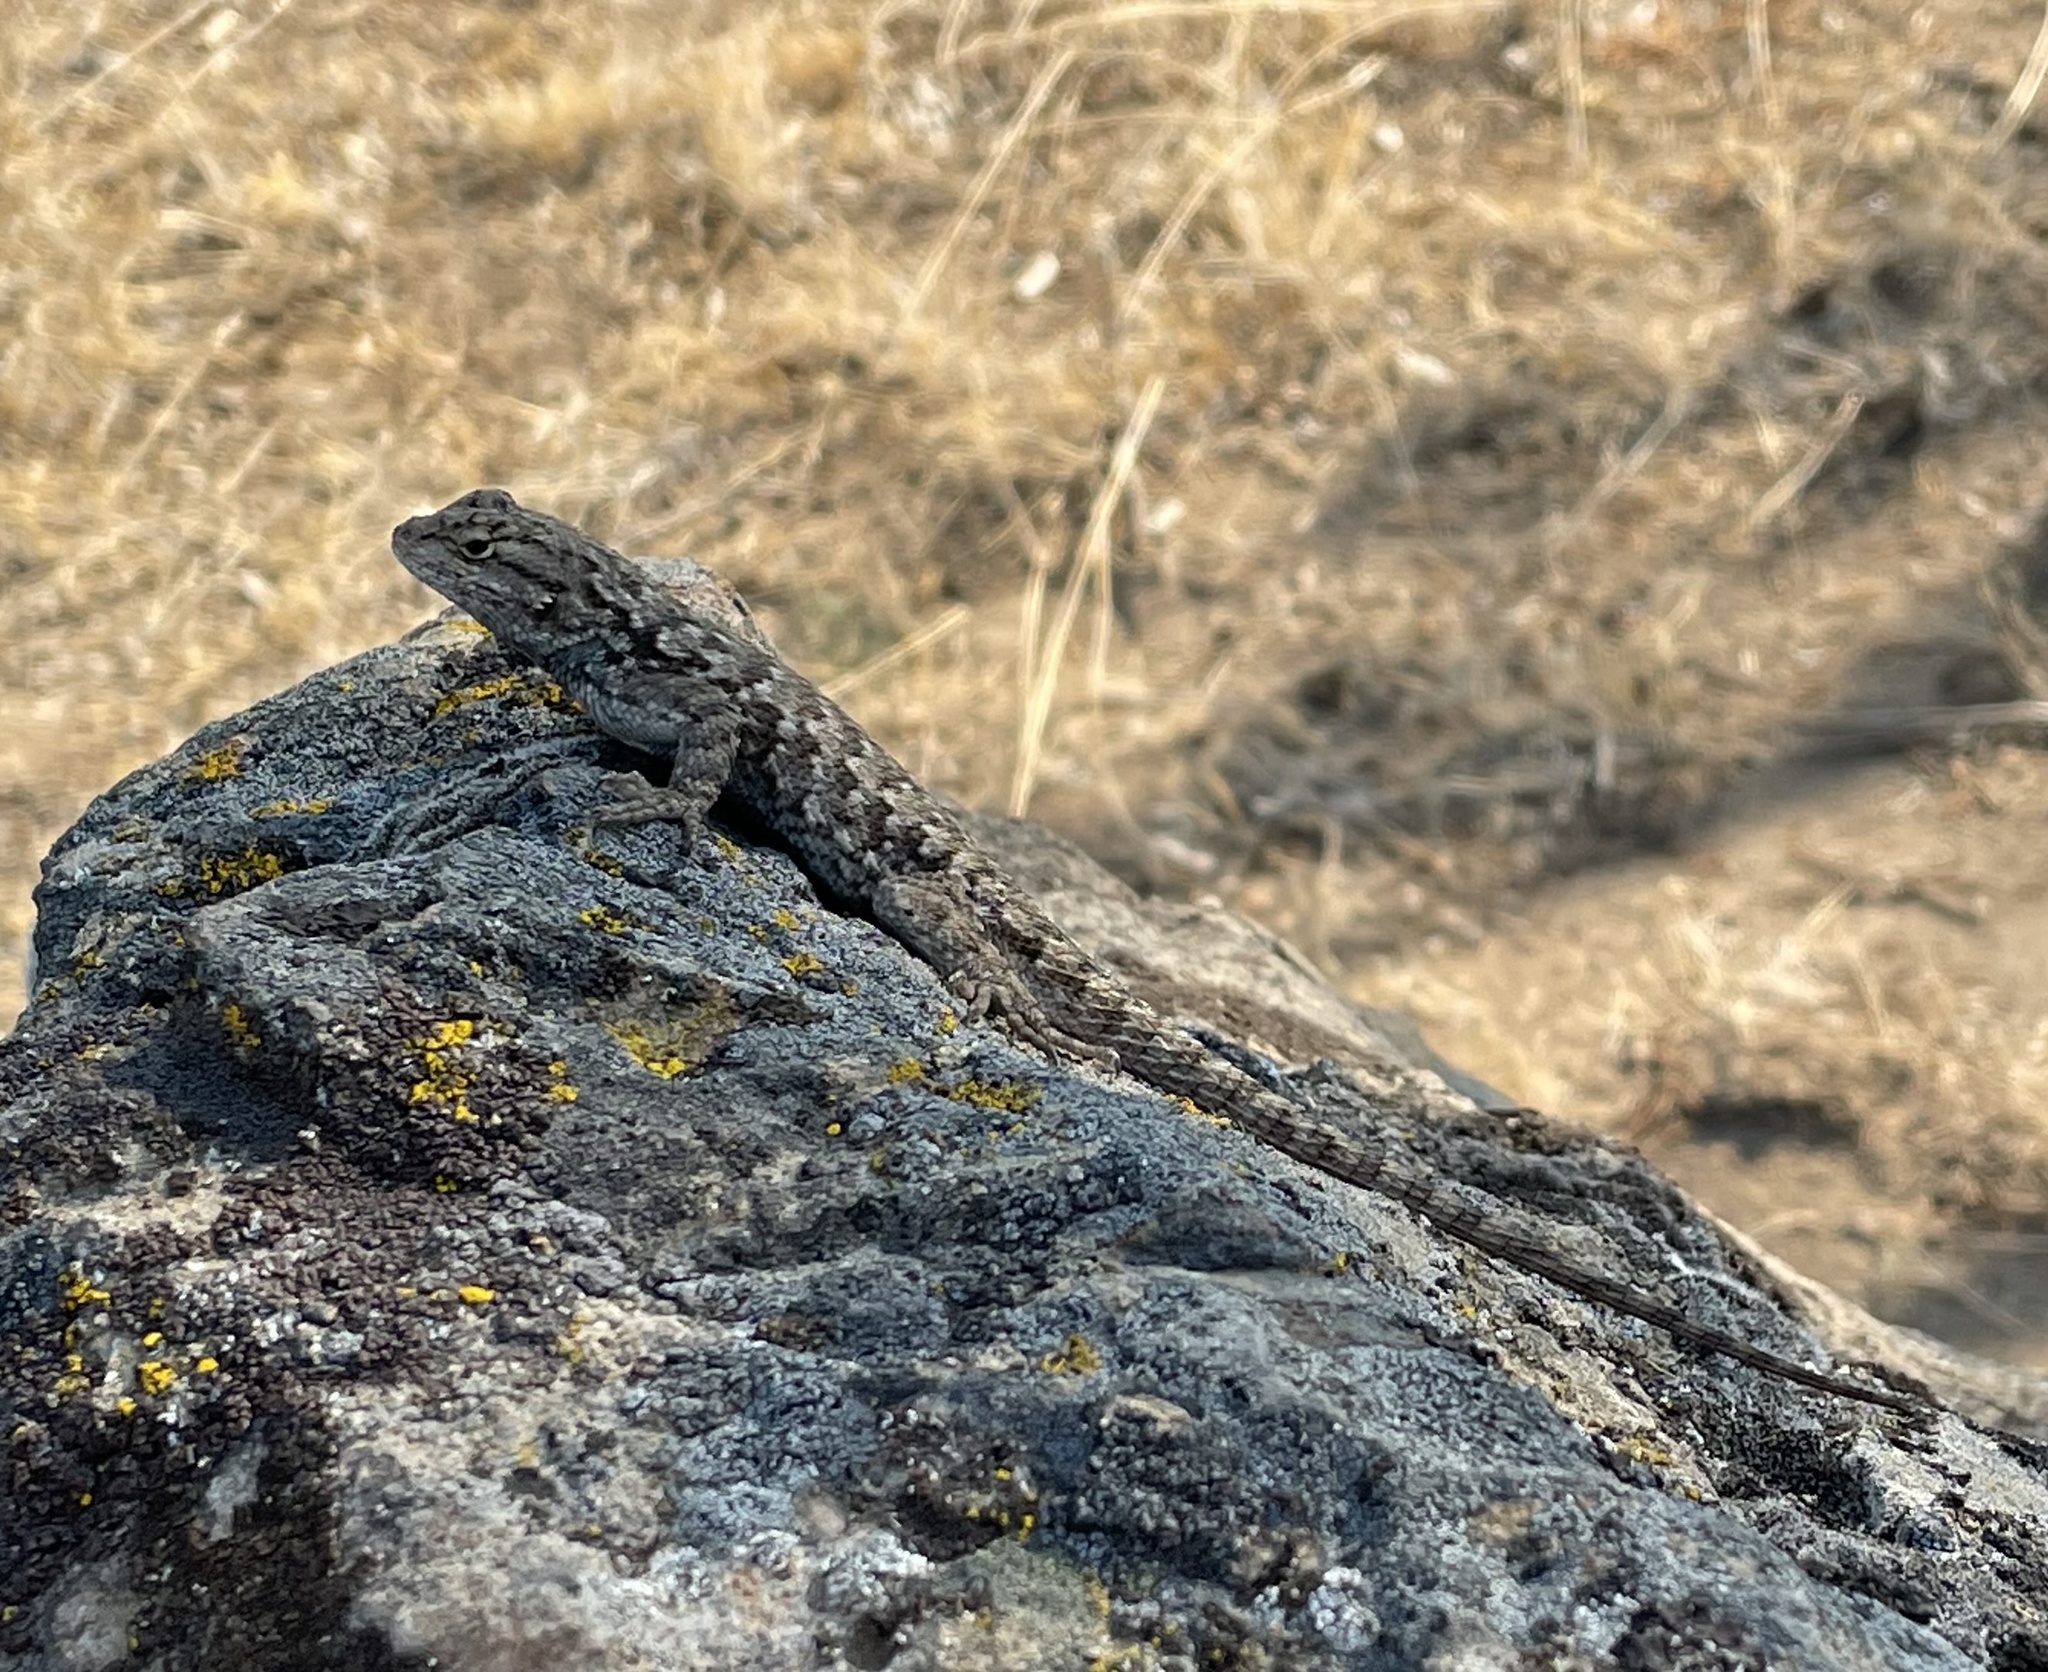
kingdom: Animalia
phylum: Chordata
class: Squamata
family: Phrynosomatidae
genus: Sceloporus
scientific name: Sceloporus occidentalis
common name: Western fence lizard
